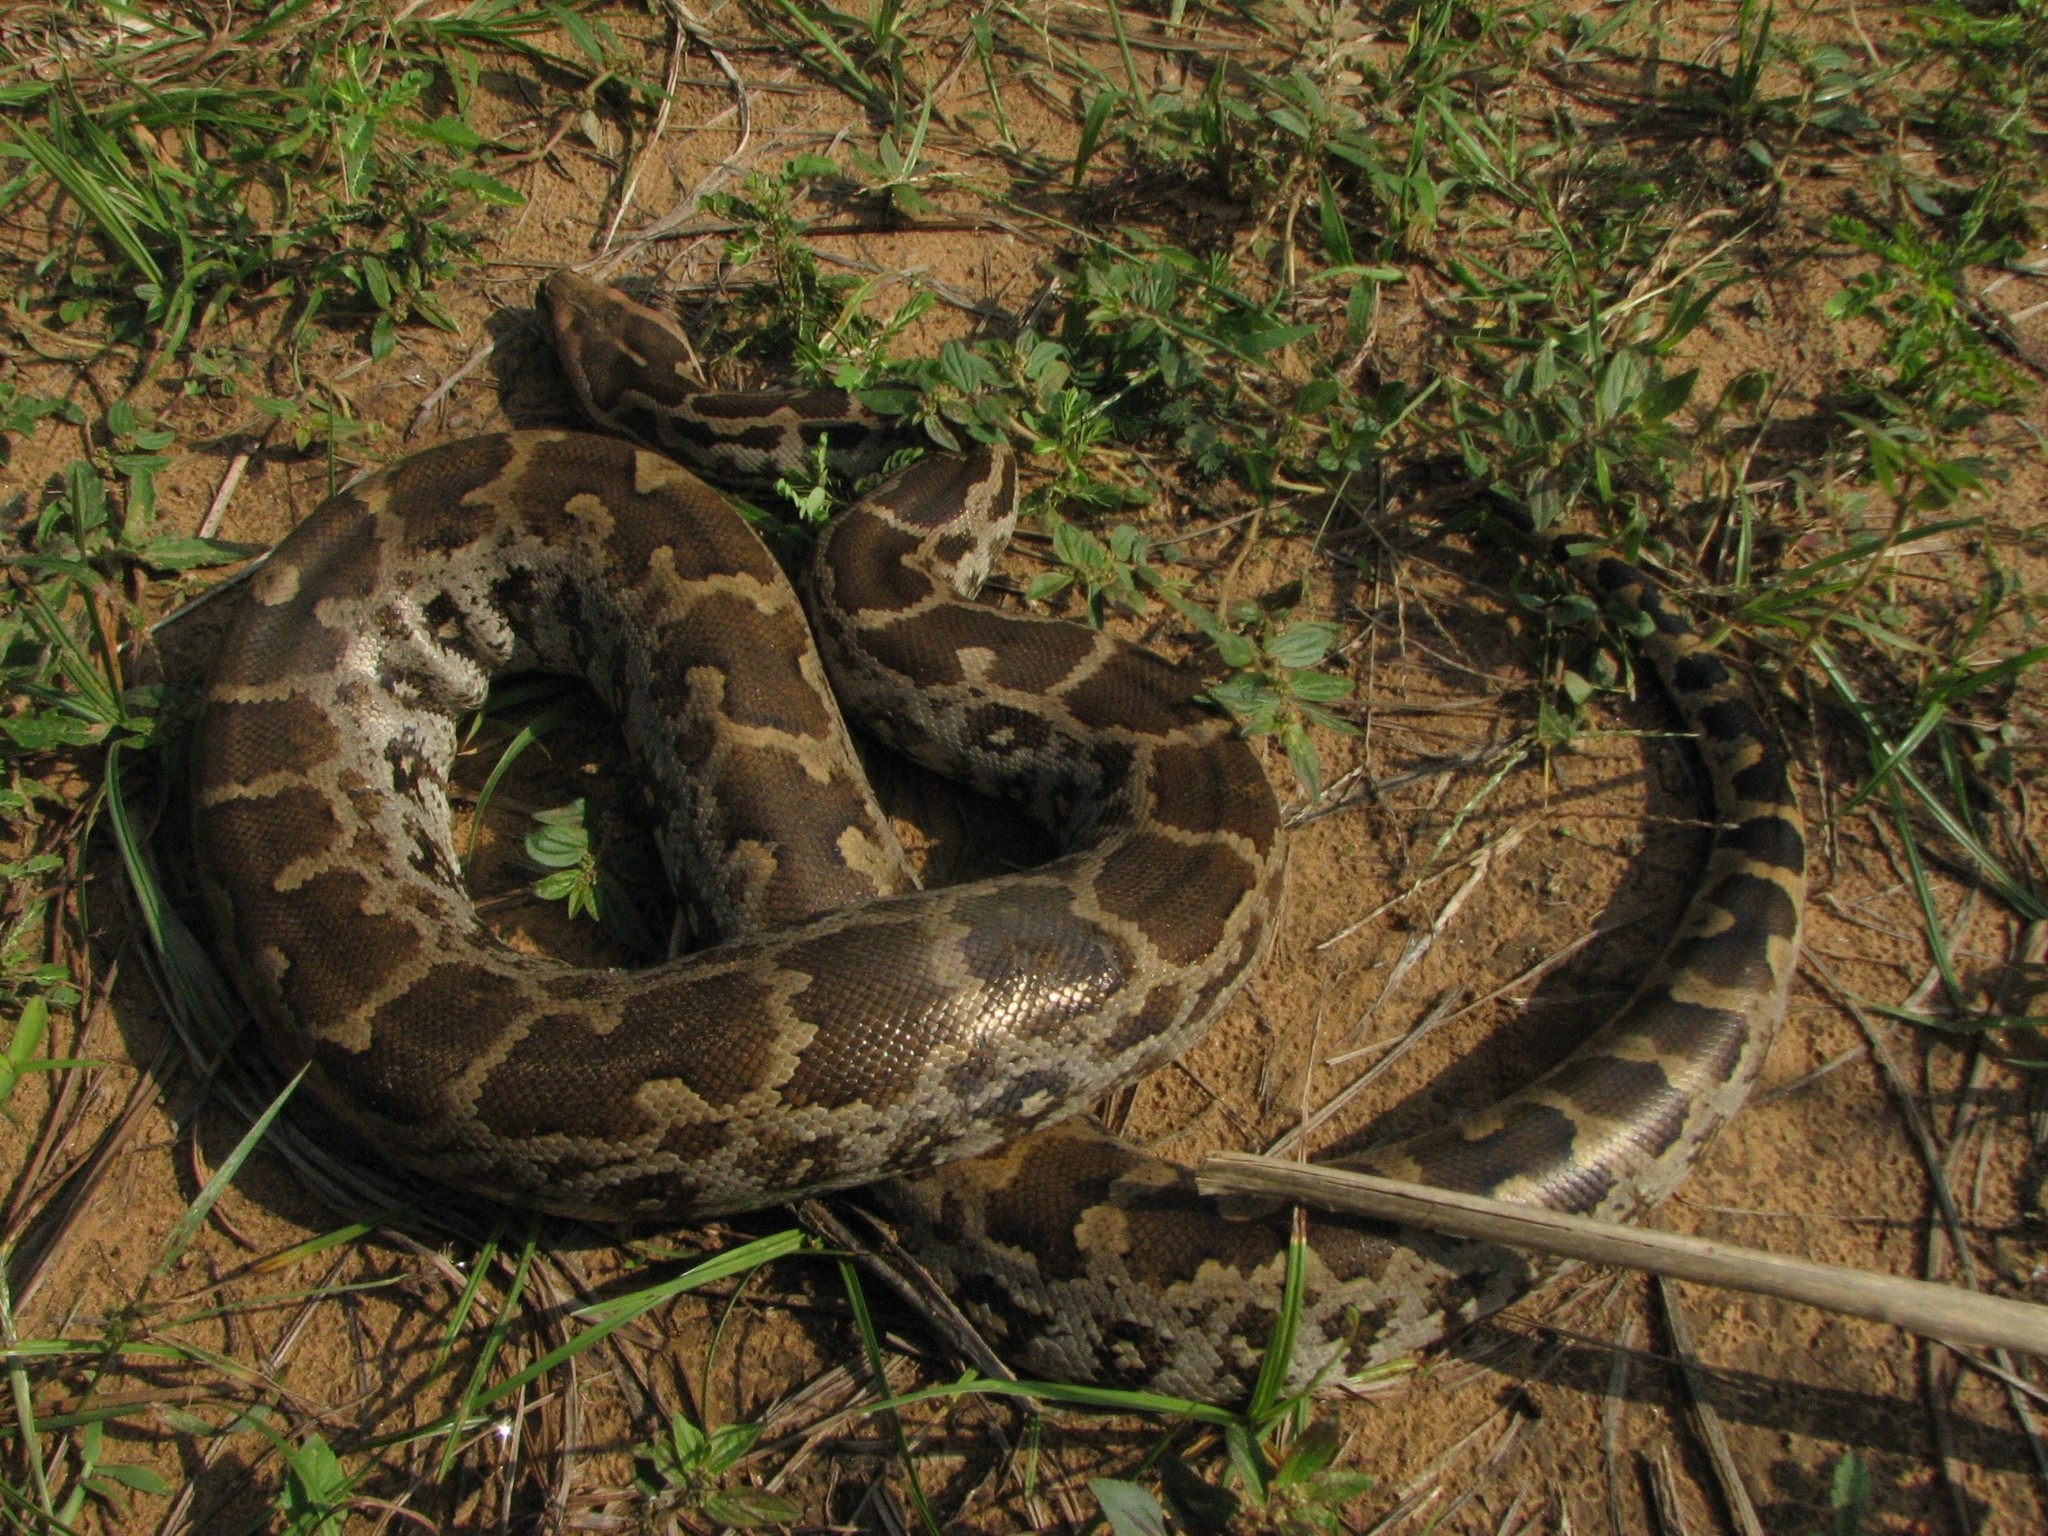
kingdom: Animalia
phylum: Chordata
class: Squamata
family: Pythonidae
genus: Python
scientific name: Python molurus
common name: Indian rock python
